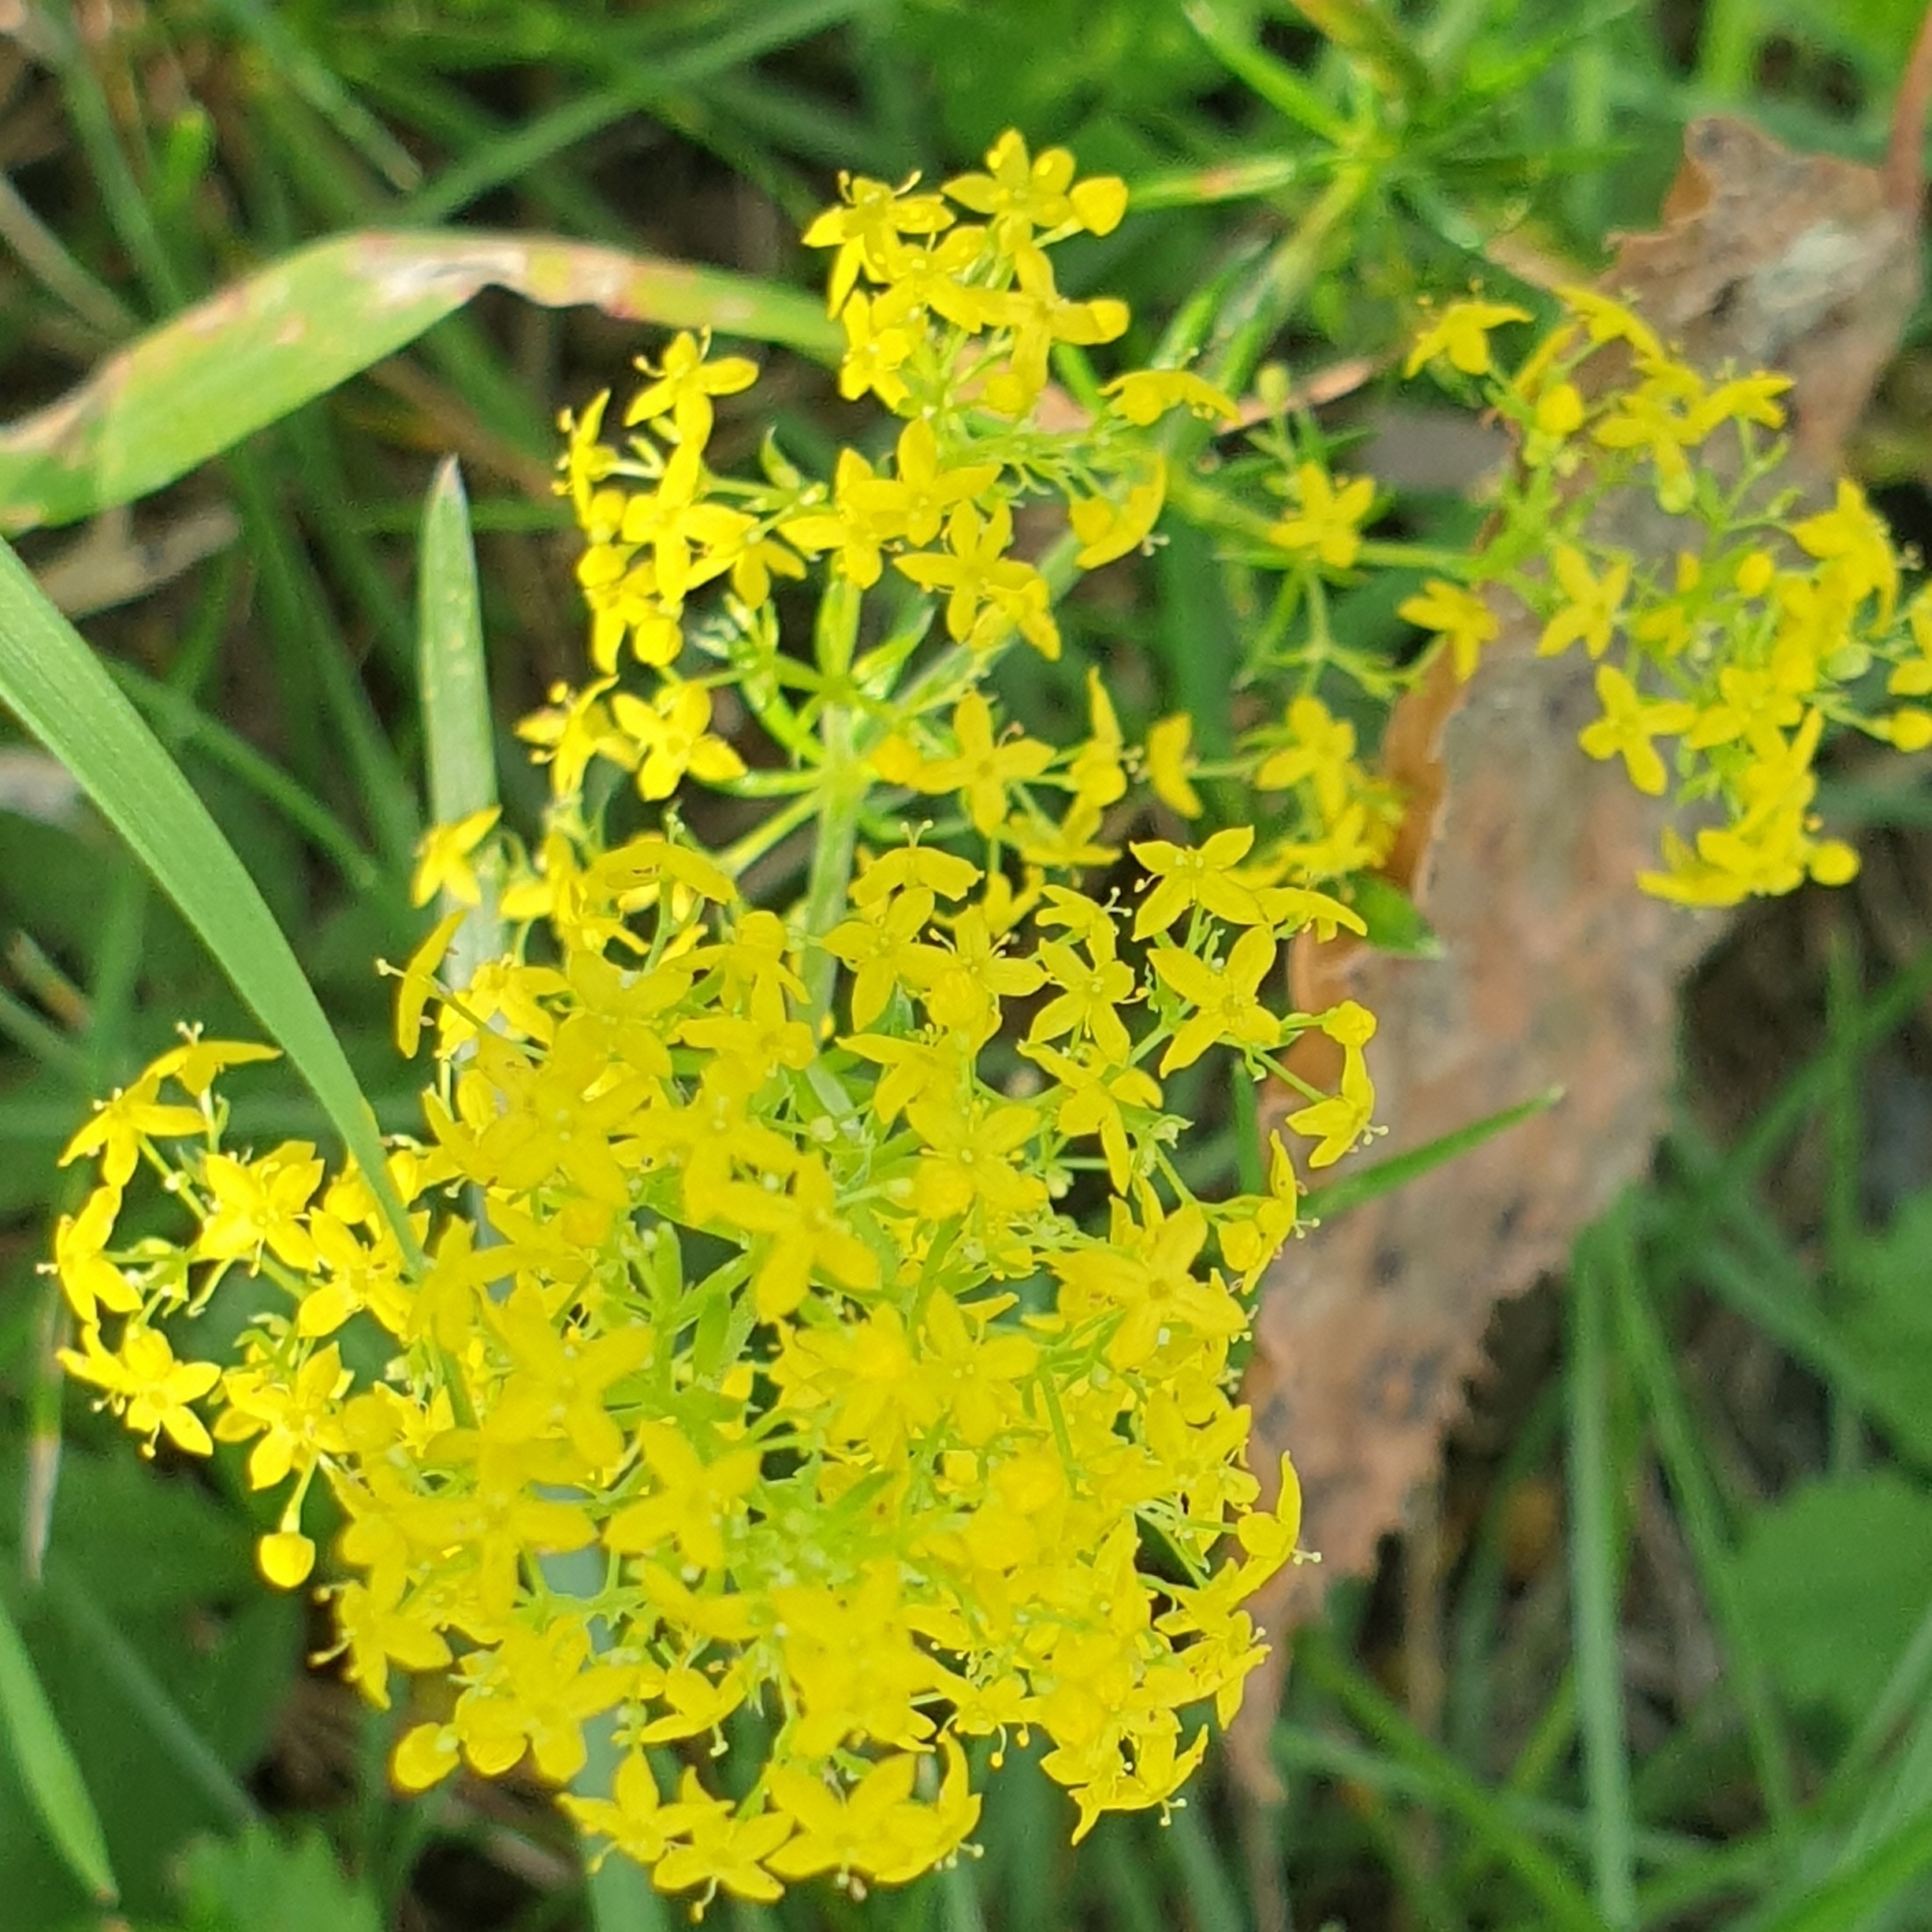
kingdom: Plantae
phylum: Tracheophyta
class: Magnoliopsida
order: Gentianales
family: Rubiaceae
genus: Galium
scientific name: Galium verum
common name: Lady's bedstraw
